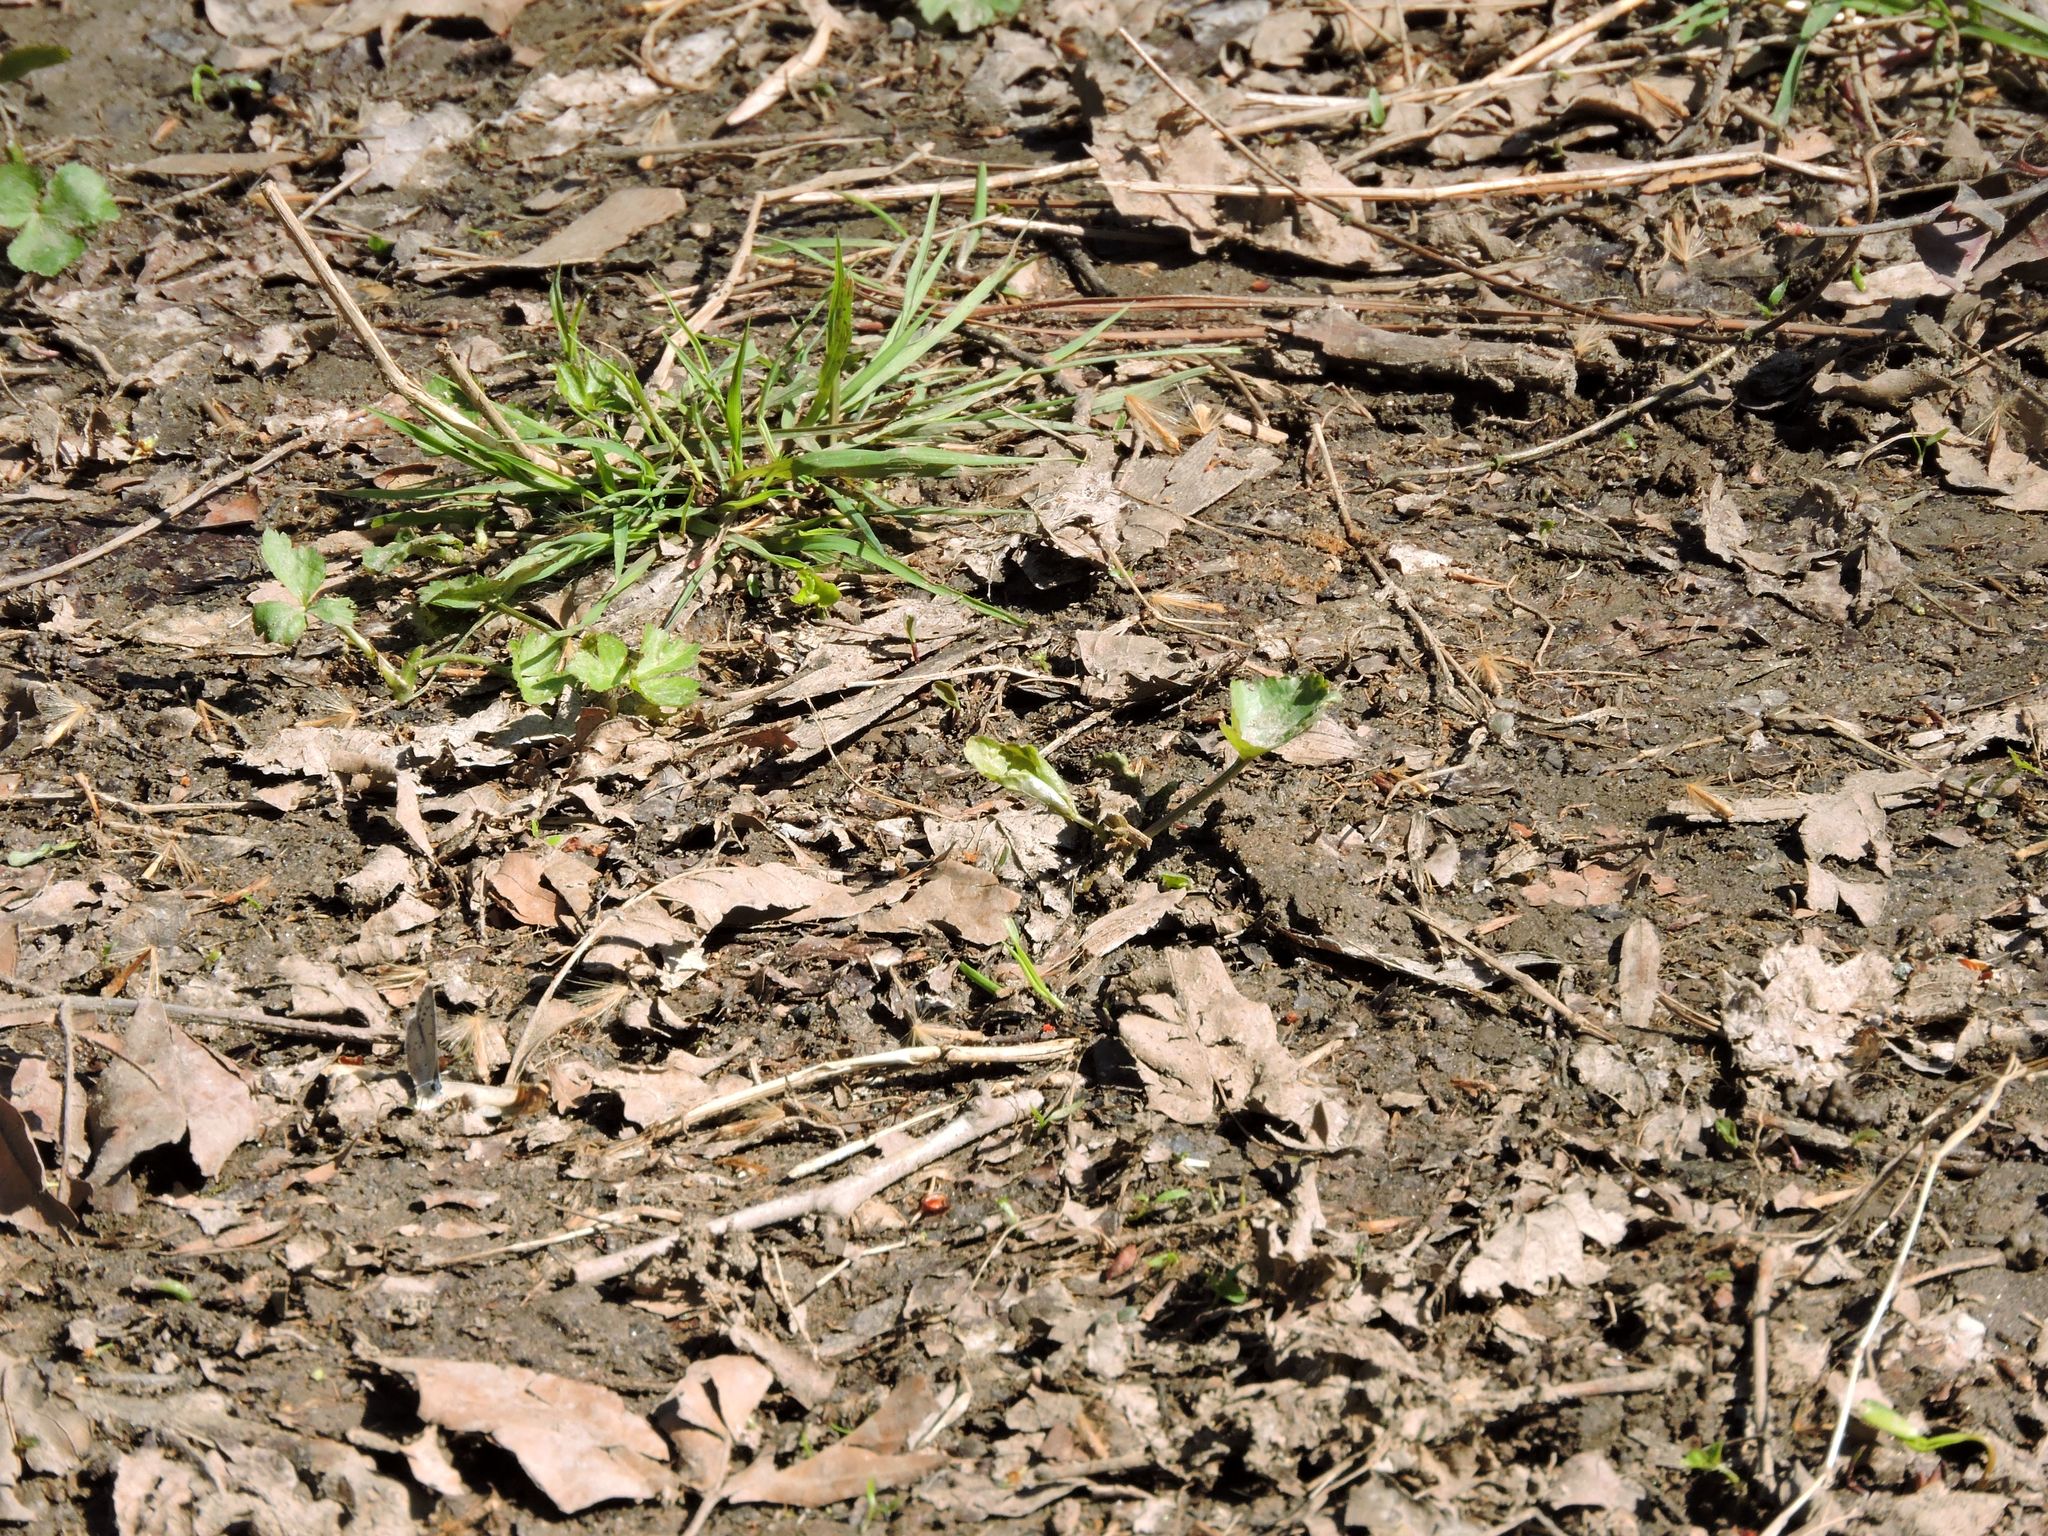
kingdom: Animalia
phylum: Arthropoda
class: Insecta
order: Lepidoptera
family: Lycaenidae
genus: Celastrina
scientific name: Celastrina ladon
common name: Spring azure
